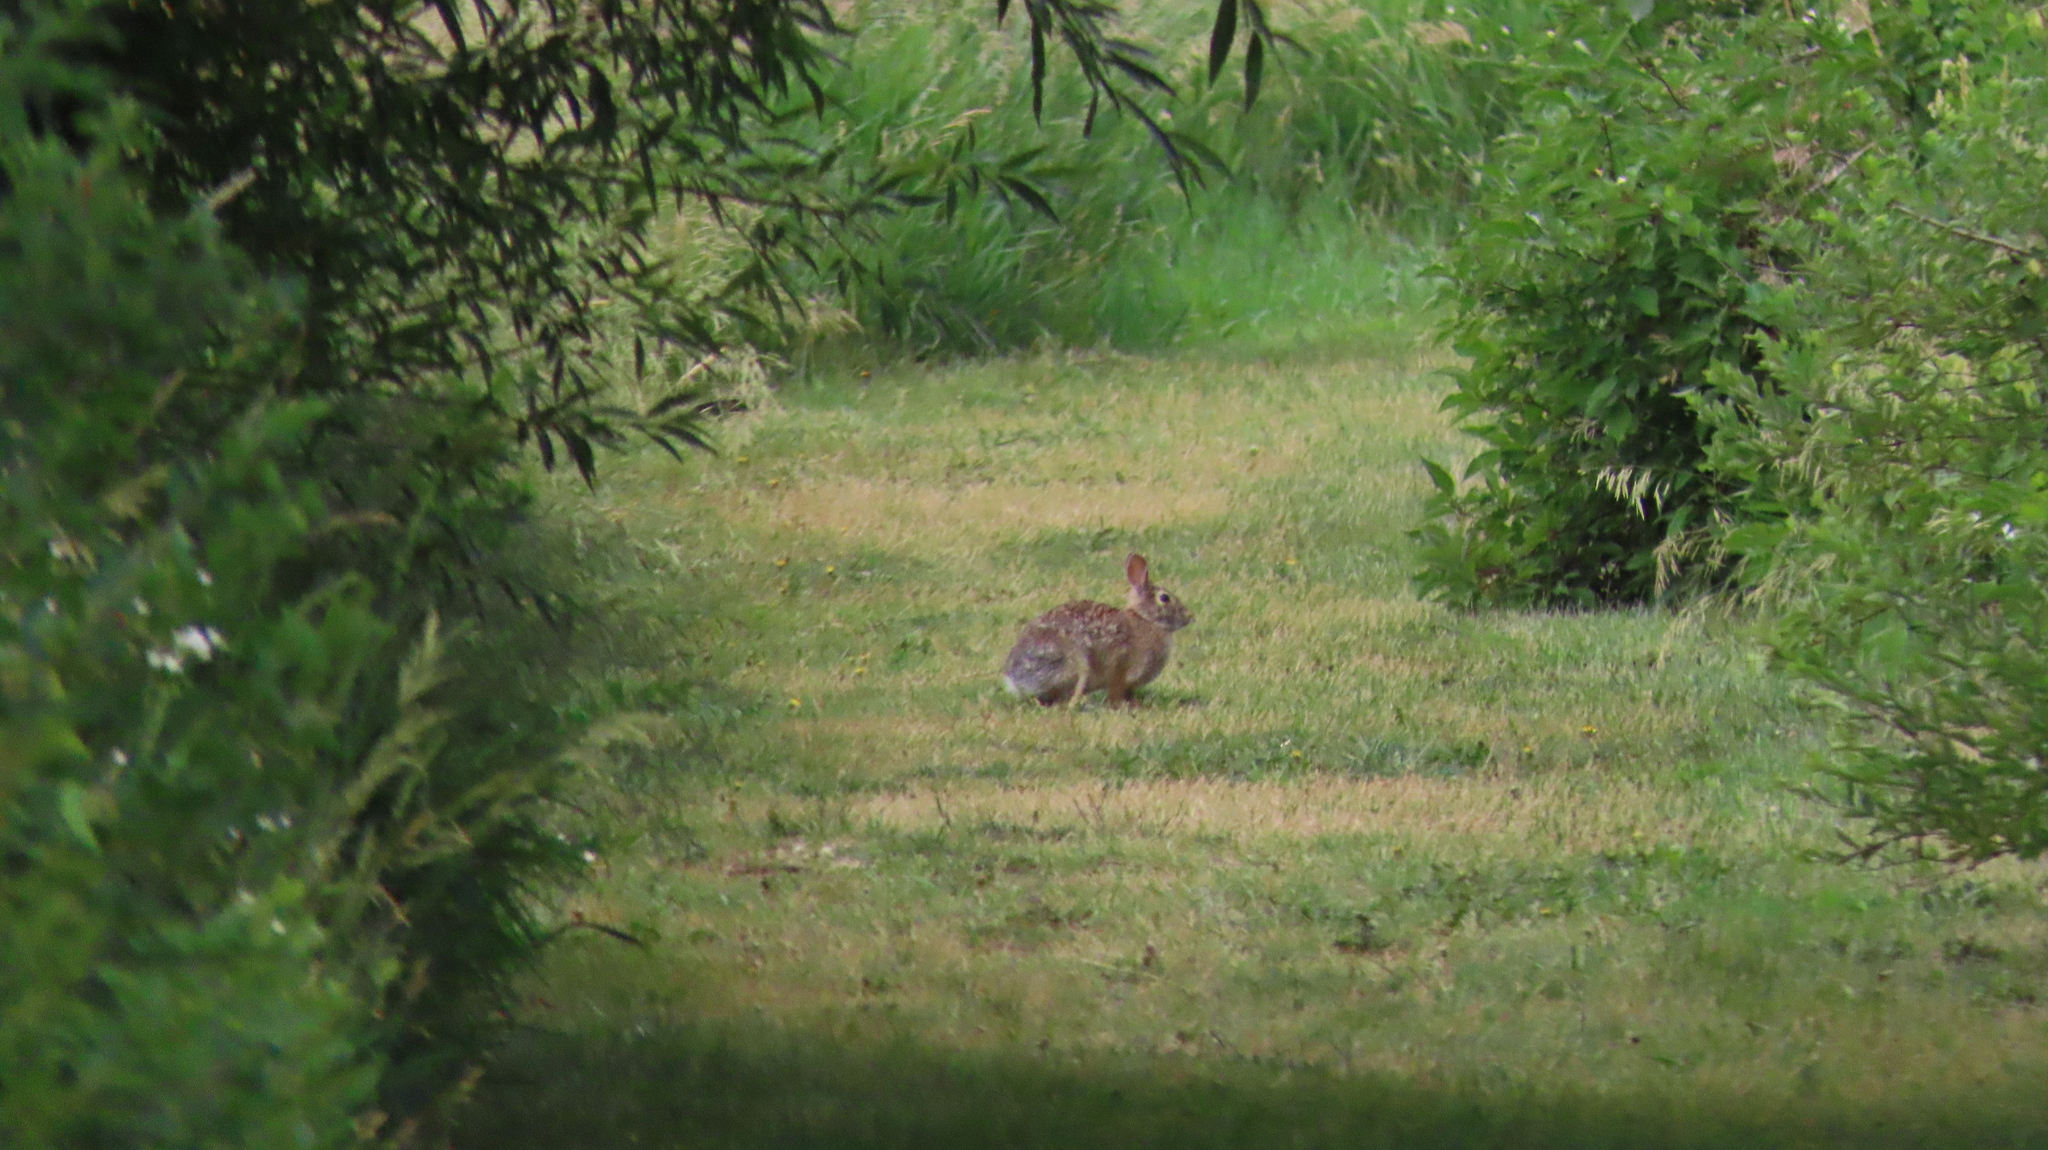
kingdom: Animalia
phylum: Chordata
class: Mammalia
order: Lagomorpha
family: Leporidae
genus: Sylvilagus
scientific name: Sylvilagus floridanus
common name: Eastern cottontail
